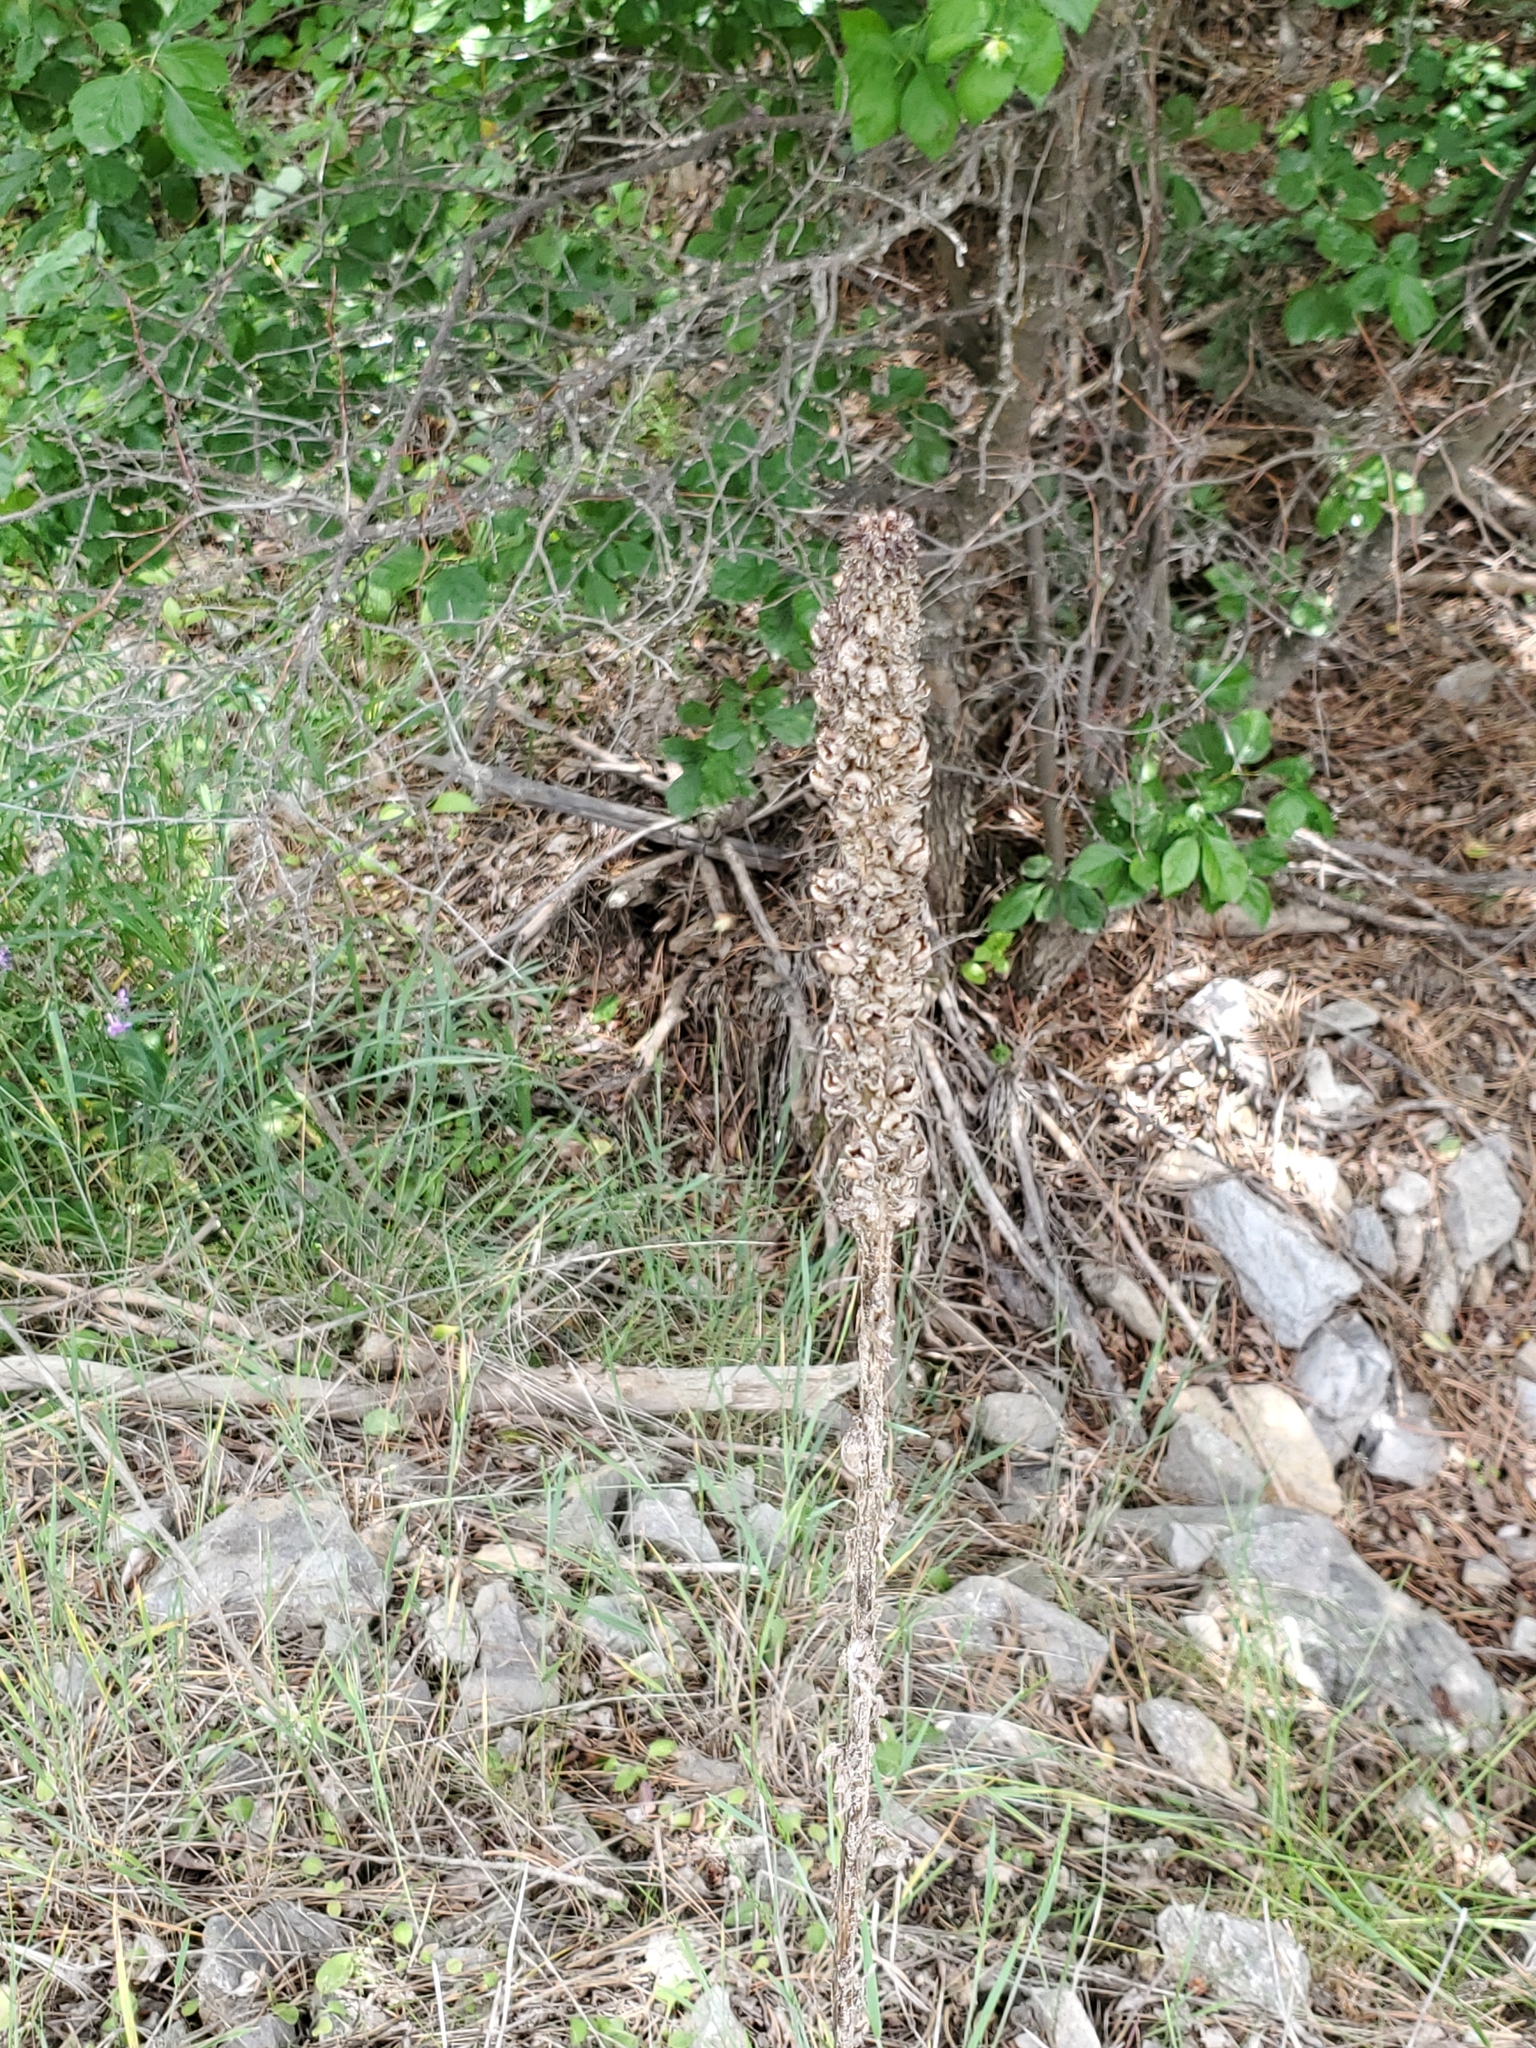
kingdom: Plantae
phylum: Tracheophyta
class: Magnoliopsida
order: Lamiales
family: Scrophulariaceae
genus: Verbascum
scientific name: Verbascum thapsus
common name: Common mullein
